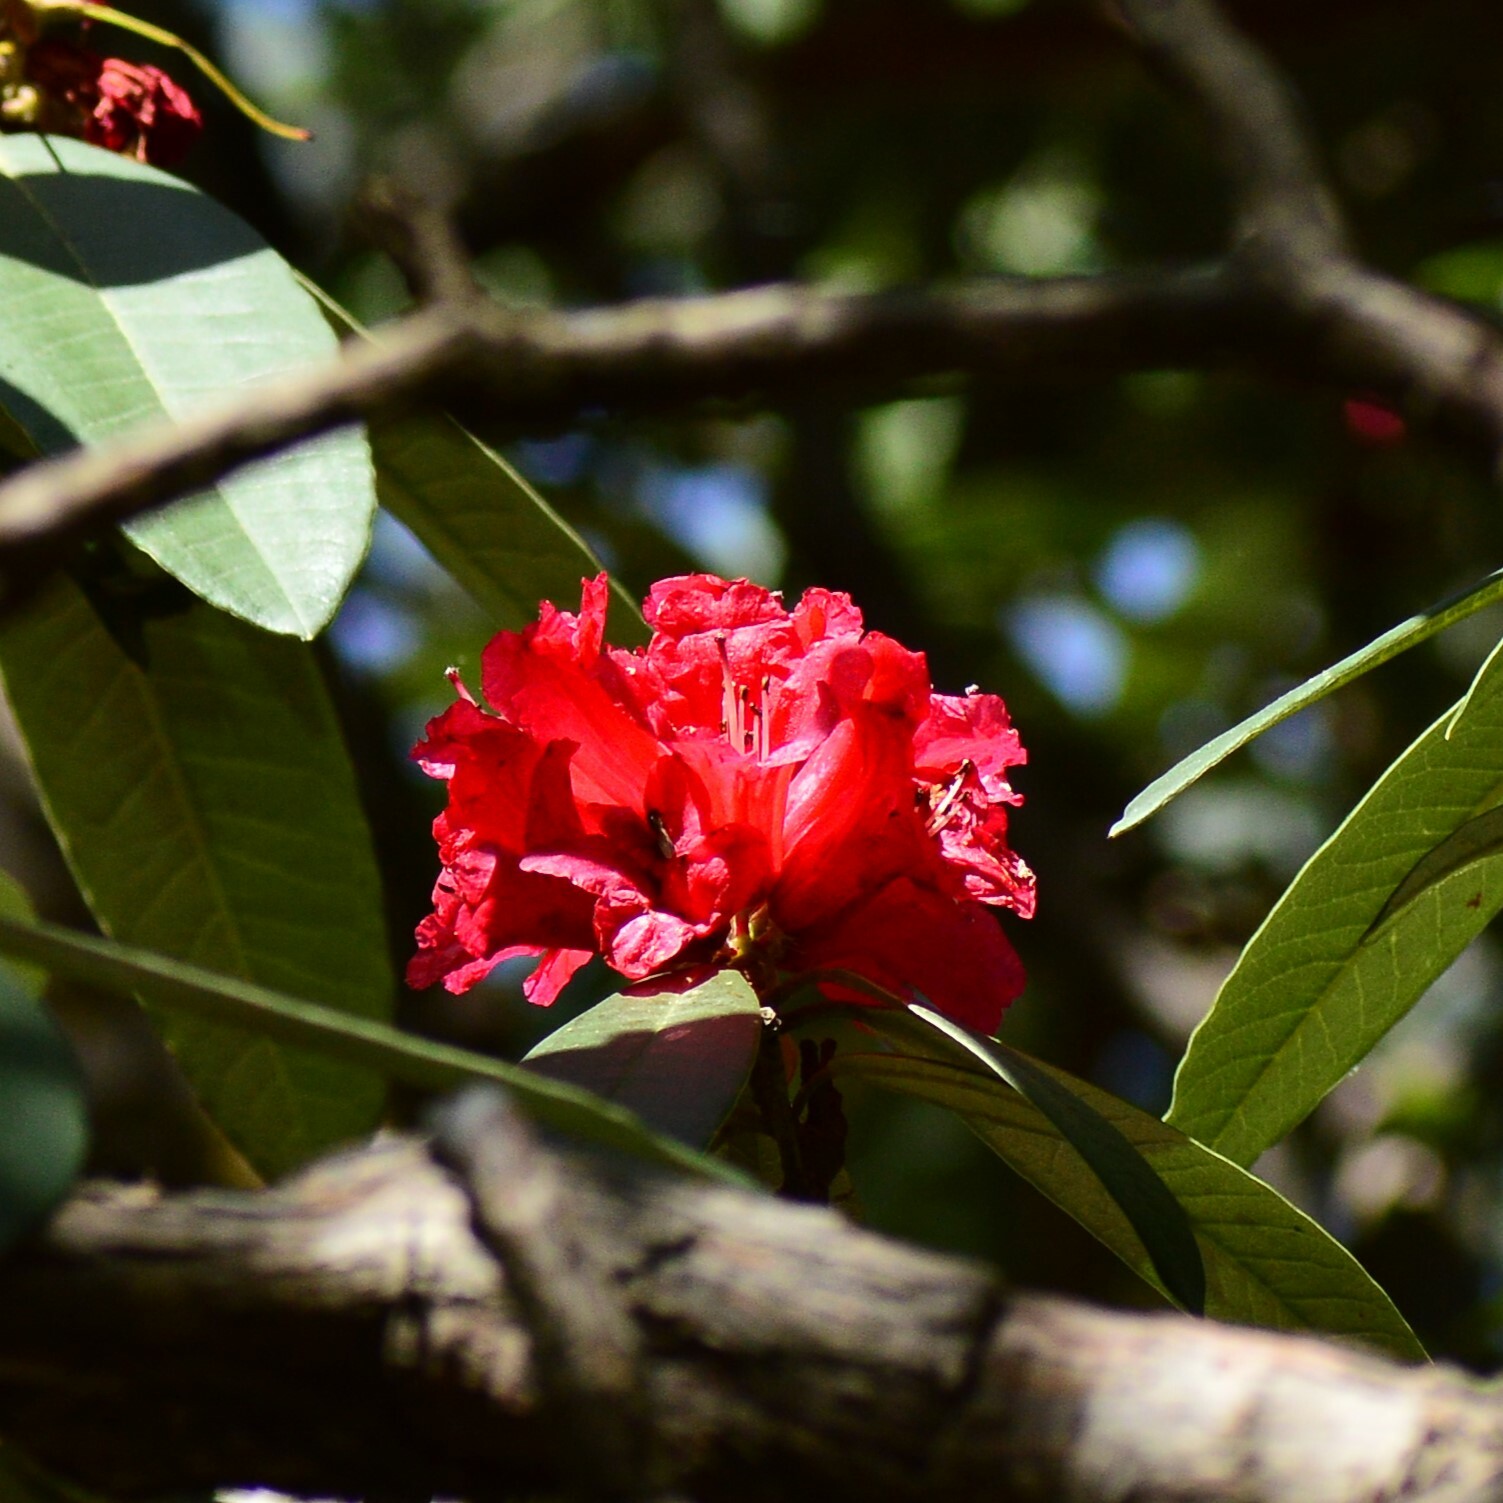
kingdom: Plantae
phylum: Tracheophyta
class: Magnoliopsida
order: Ericales
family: Ericaceae
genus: Rhododendron
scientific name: Rhododendron arboreum
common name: Tree rhododendron
